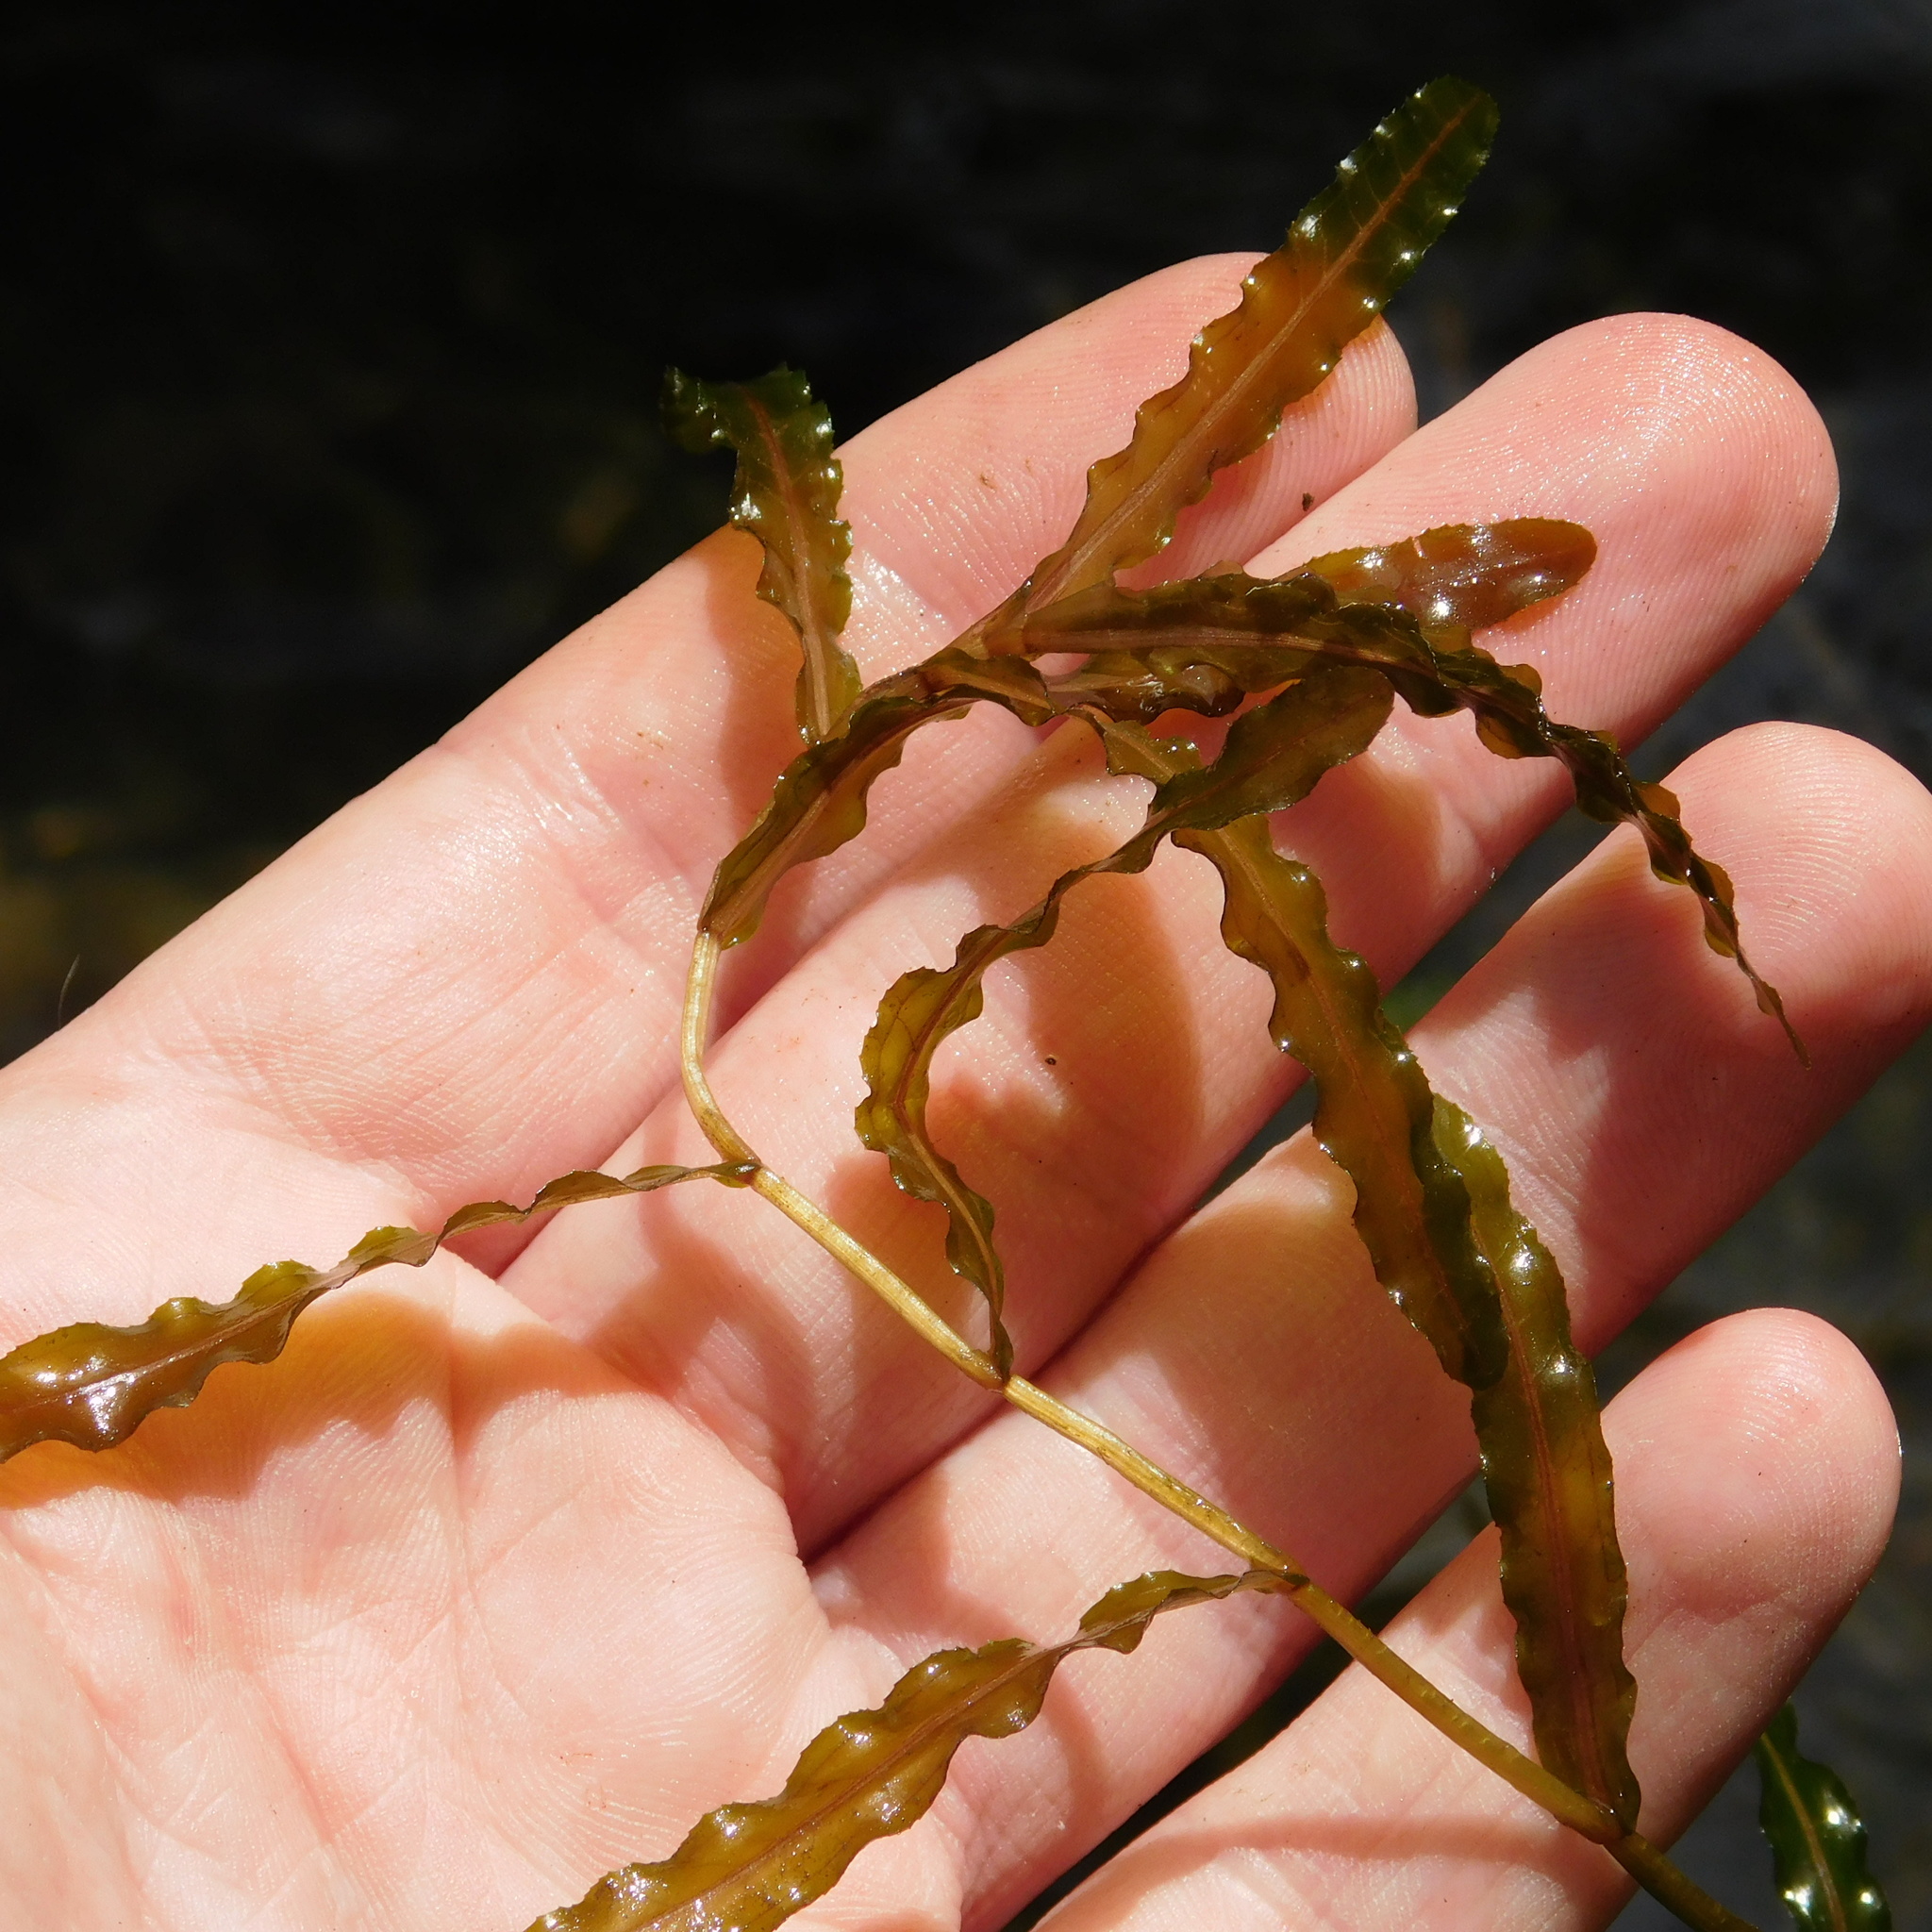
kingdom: Plantae
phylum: Tracheophyta
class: Liliopsida
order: Alismatales
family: Potamogetonaceae
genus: Potamogeton
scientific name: Potamogeton crispus
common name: Curled pondweed
